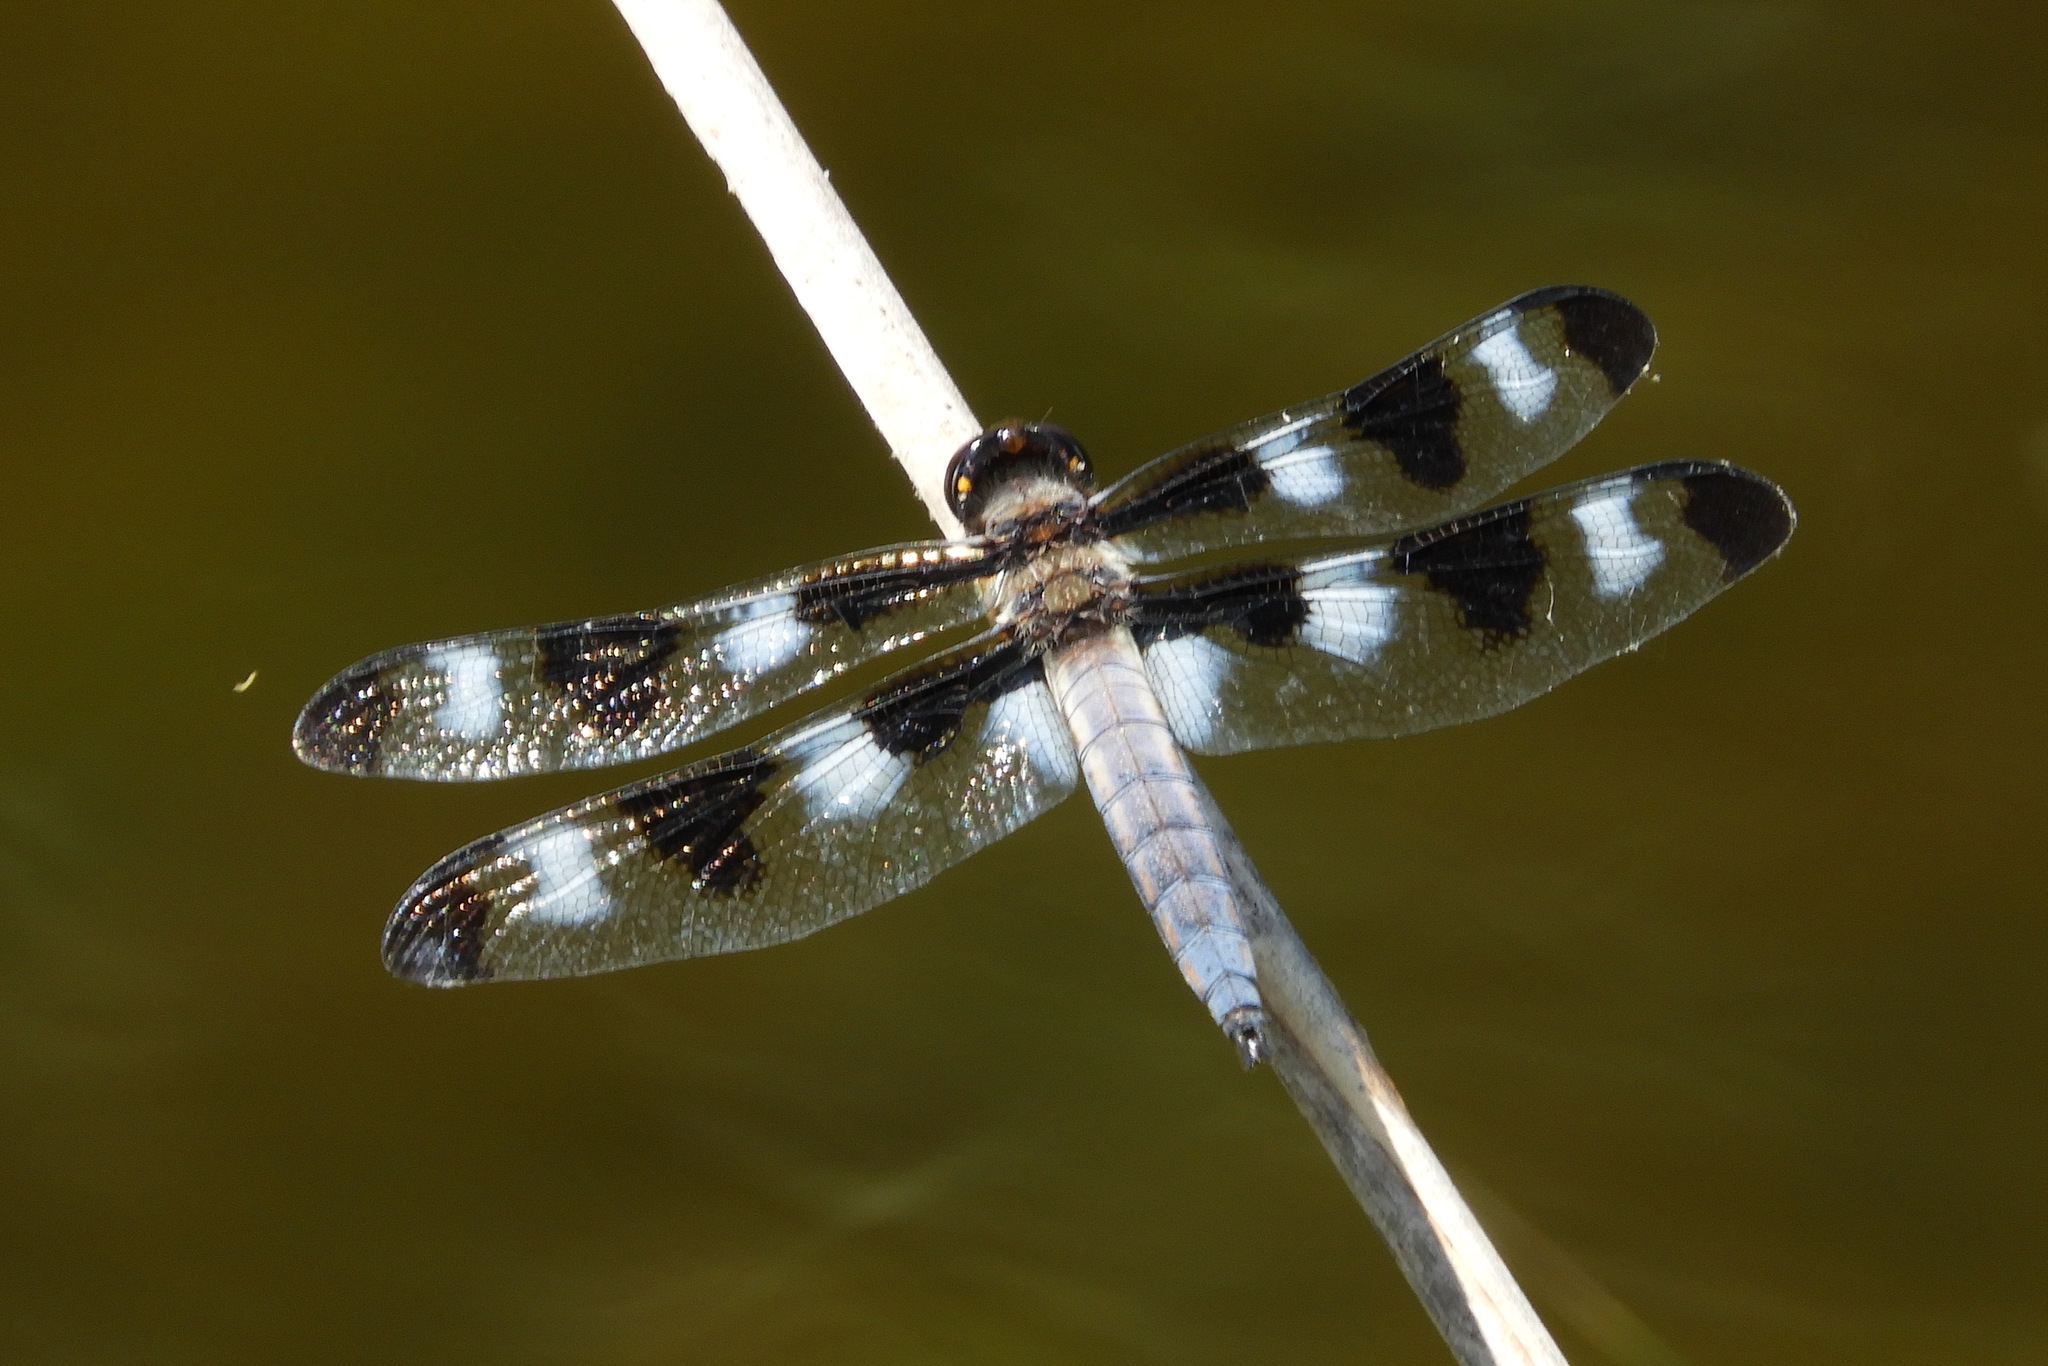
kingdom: Animalia
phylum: Arthropoda
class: Insecta
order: Odonata
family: Libellulidae
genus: Libellula
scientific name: Libellula pulchella
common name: Twelve-spotted skimmer
